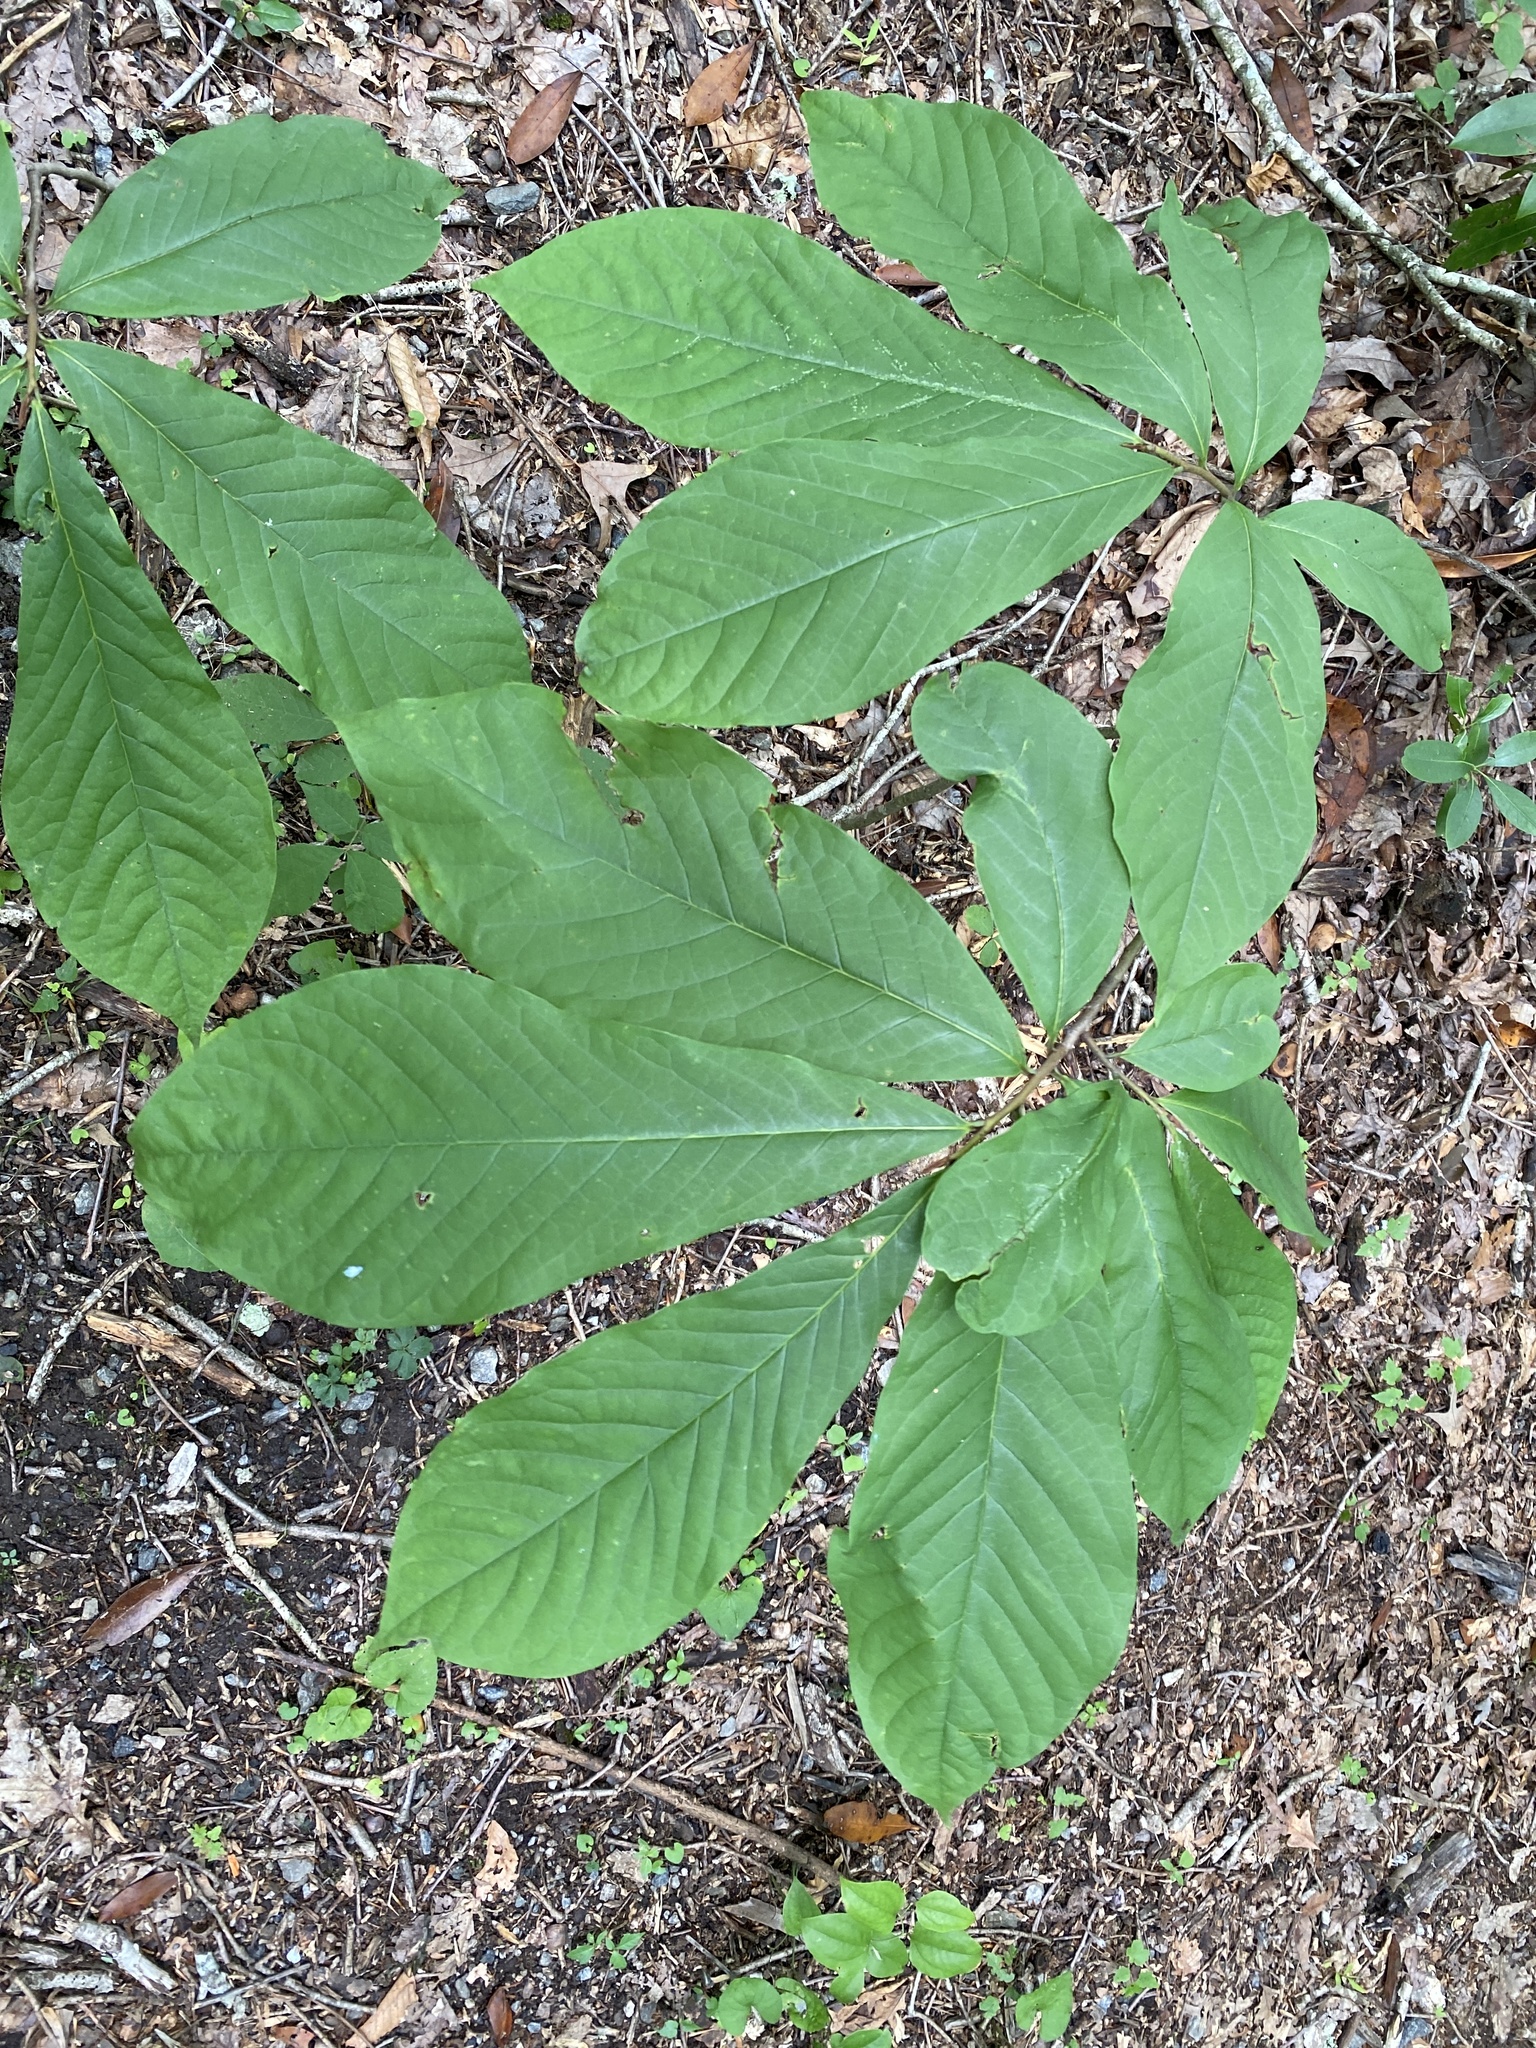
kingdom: Plantae
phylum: Tracheophyta
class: Magnoliopsida
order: Magnoliales
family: Annonaceae
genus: Asimina
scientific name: Asimina triloba
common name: Dog-banana
